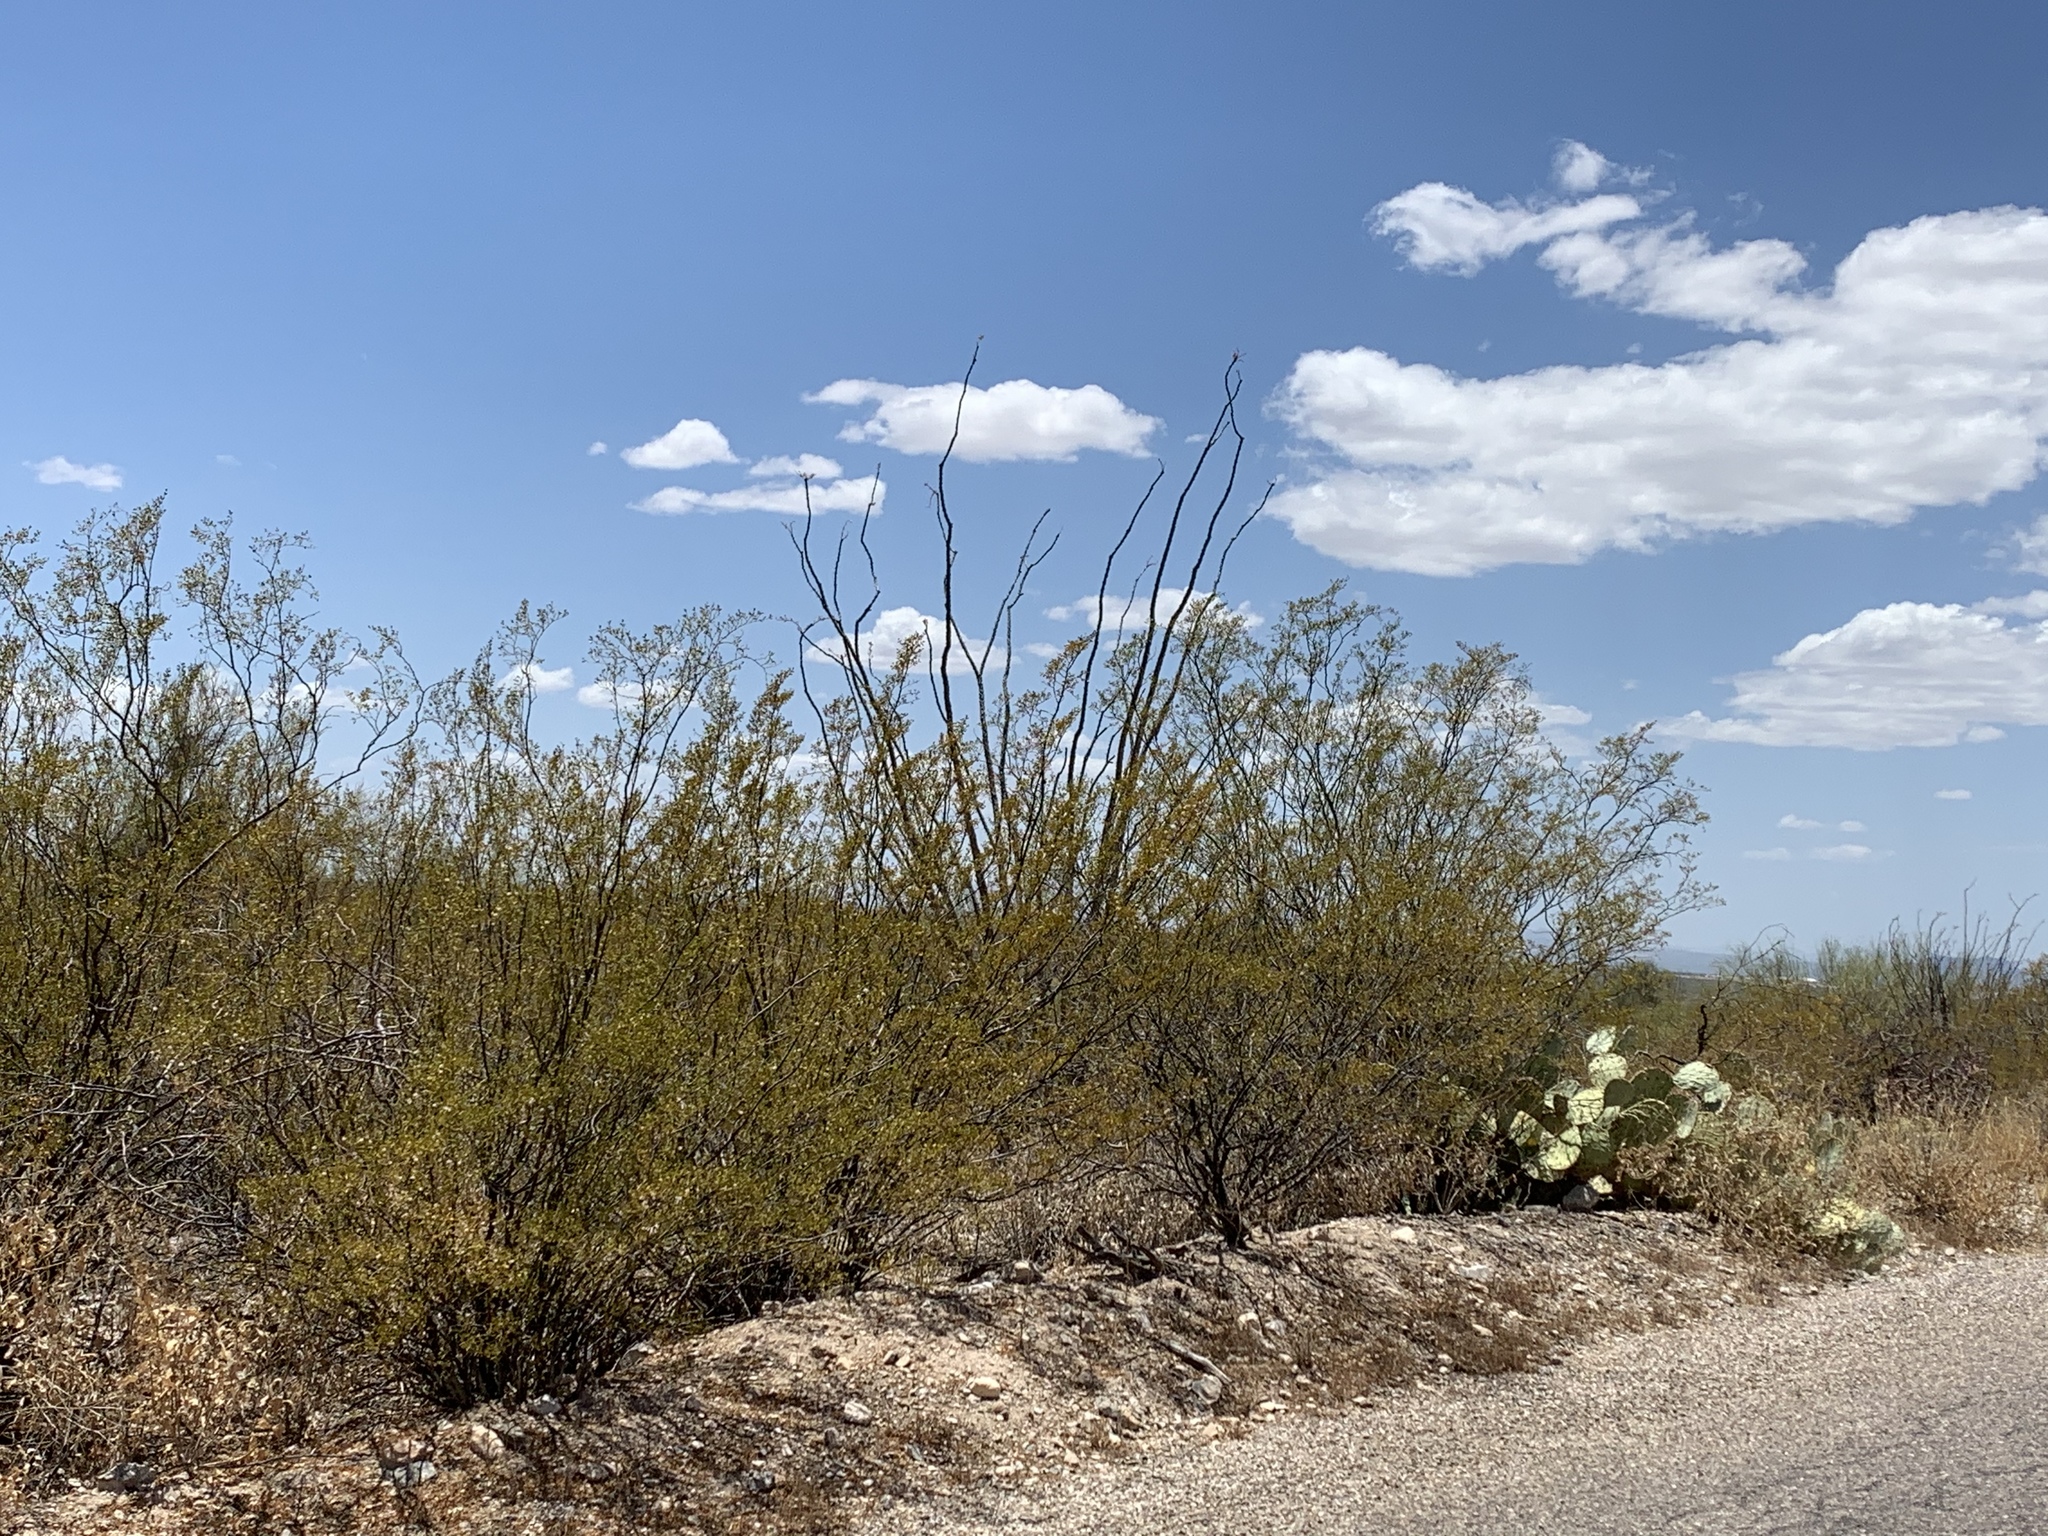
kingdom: Plantae
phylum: Tracheophyta
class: Magnoliopsida
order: Zygophyllales
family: Zygophyllaceae
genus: Larrea
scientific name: Larrea tridentata
